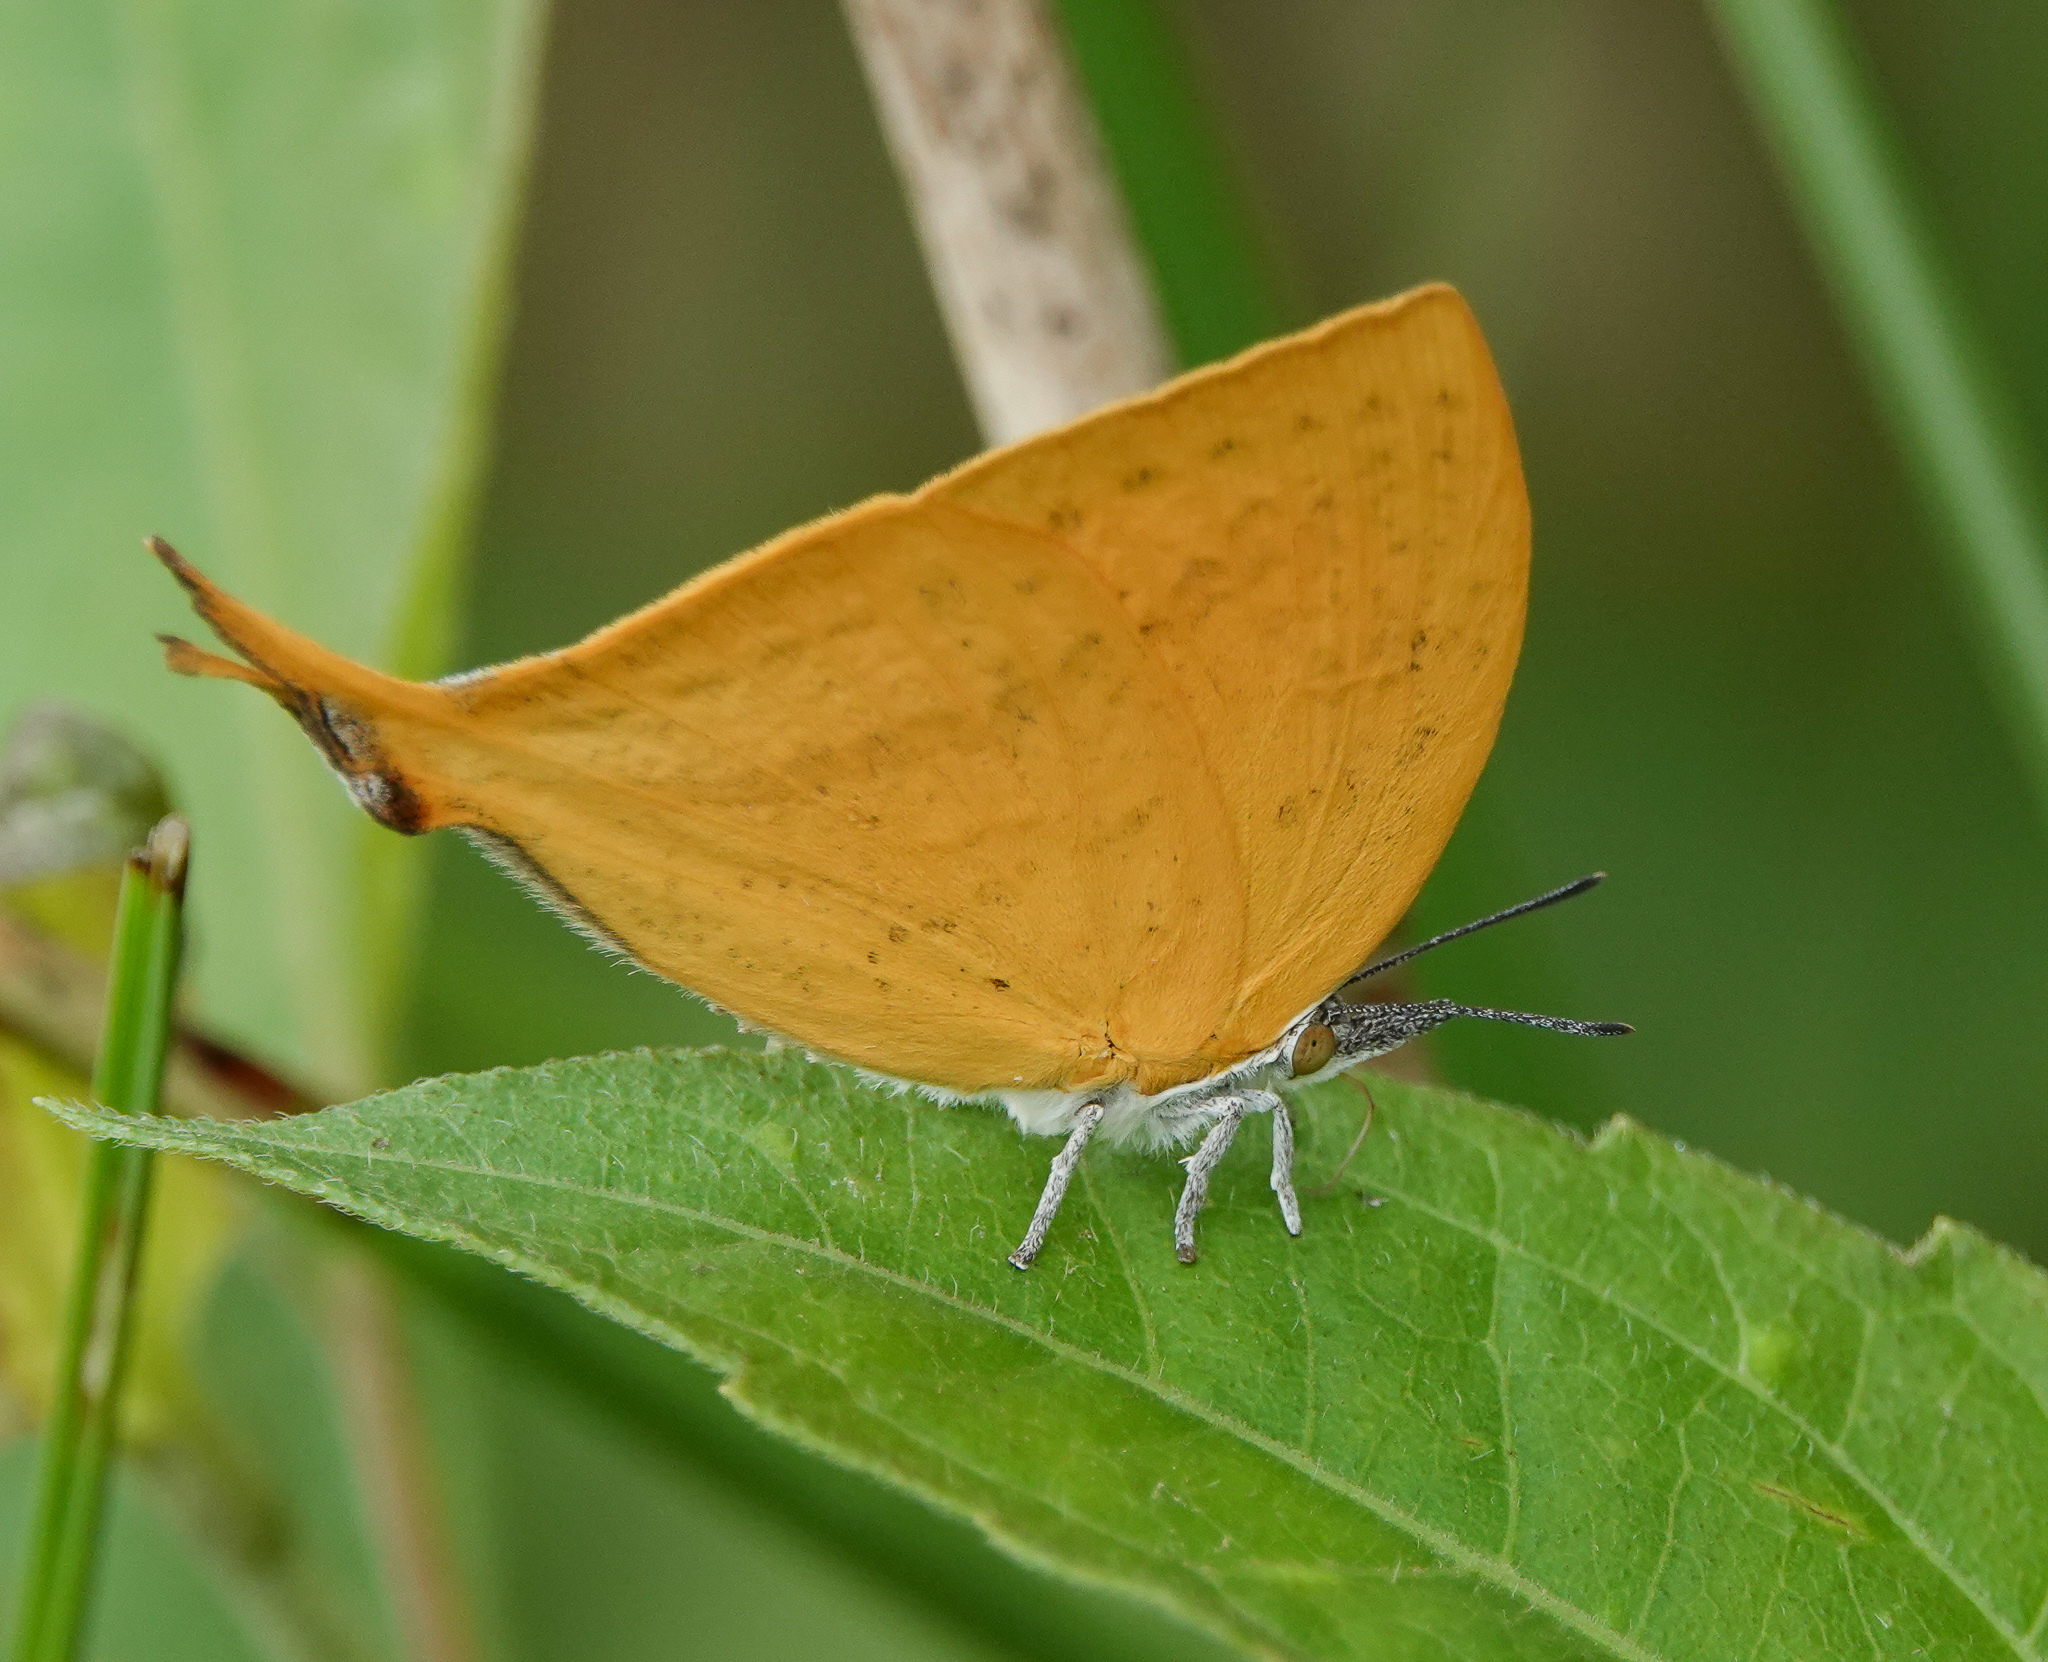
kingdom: Animalia
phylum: Arthropoda
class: Insecta
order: Lepidoptera
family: Lycaenidae
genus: Loxura
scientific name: Loxura atymnus
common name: Common yamfly
